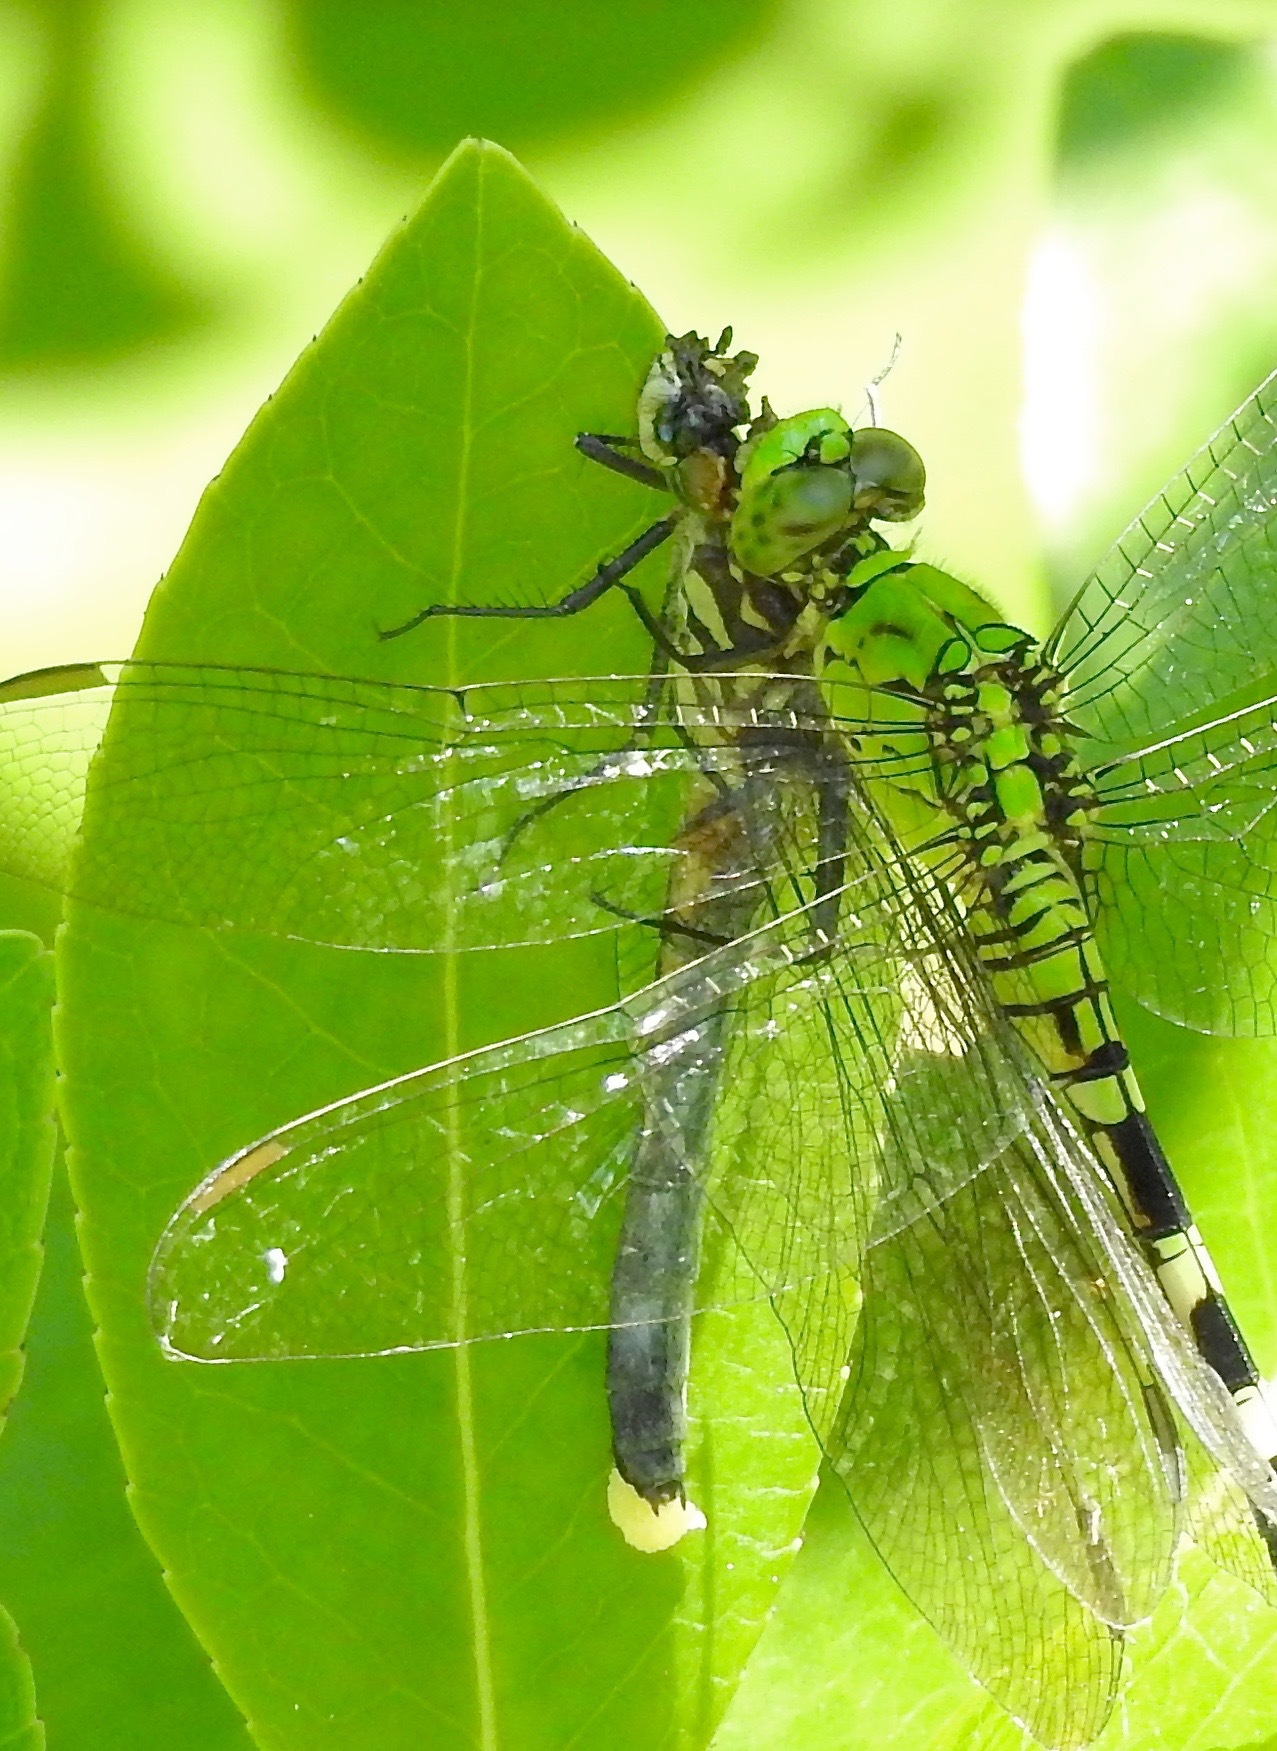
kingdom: Animalia
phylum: Arthropoda
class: Insecta
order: Odonata
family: Libellulidae
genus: Pachydiplax
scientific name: Pachydiplax longipennis
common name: Blue dasher
